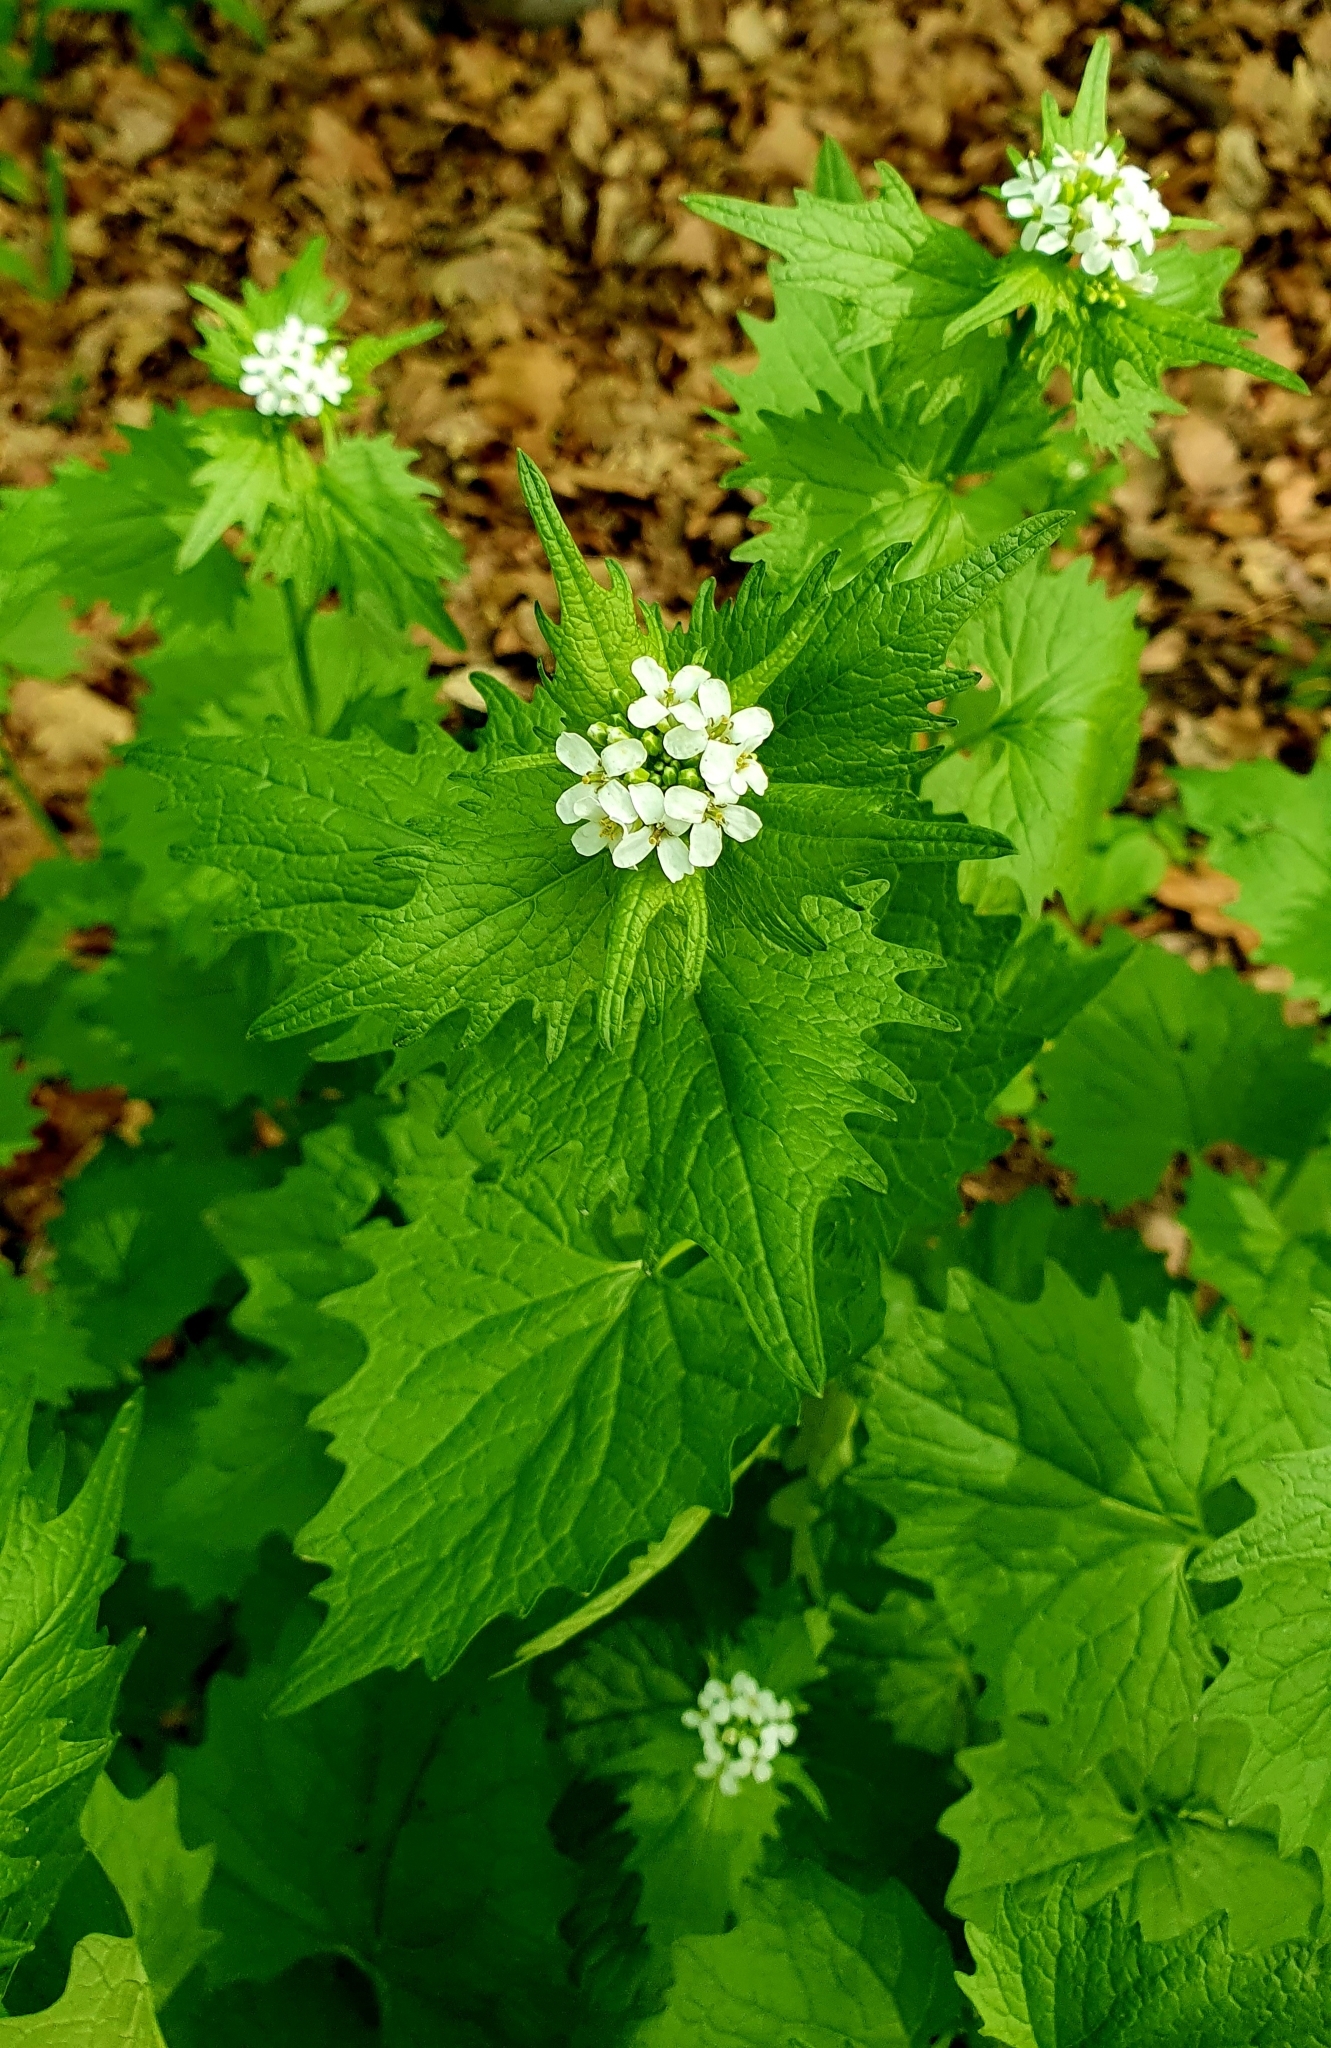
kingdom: Plantae
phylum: Tracheophyta
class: Magnoliopsida
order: Brassicales
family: Brassicaceae
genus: Alliaria
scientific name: Alliaria petiolata
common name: Garlic mustard
